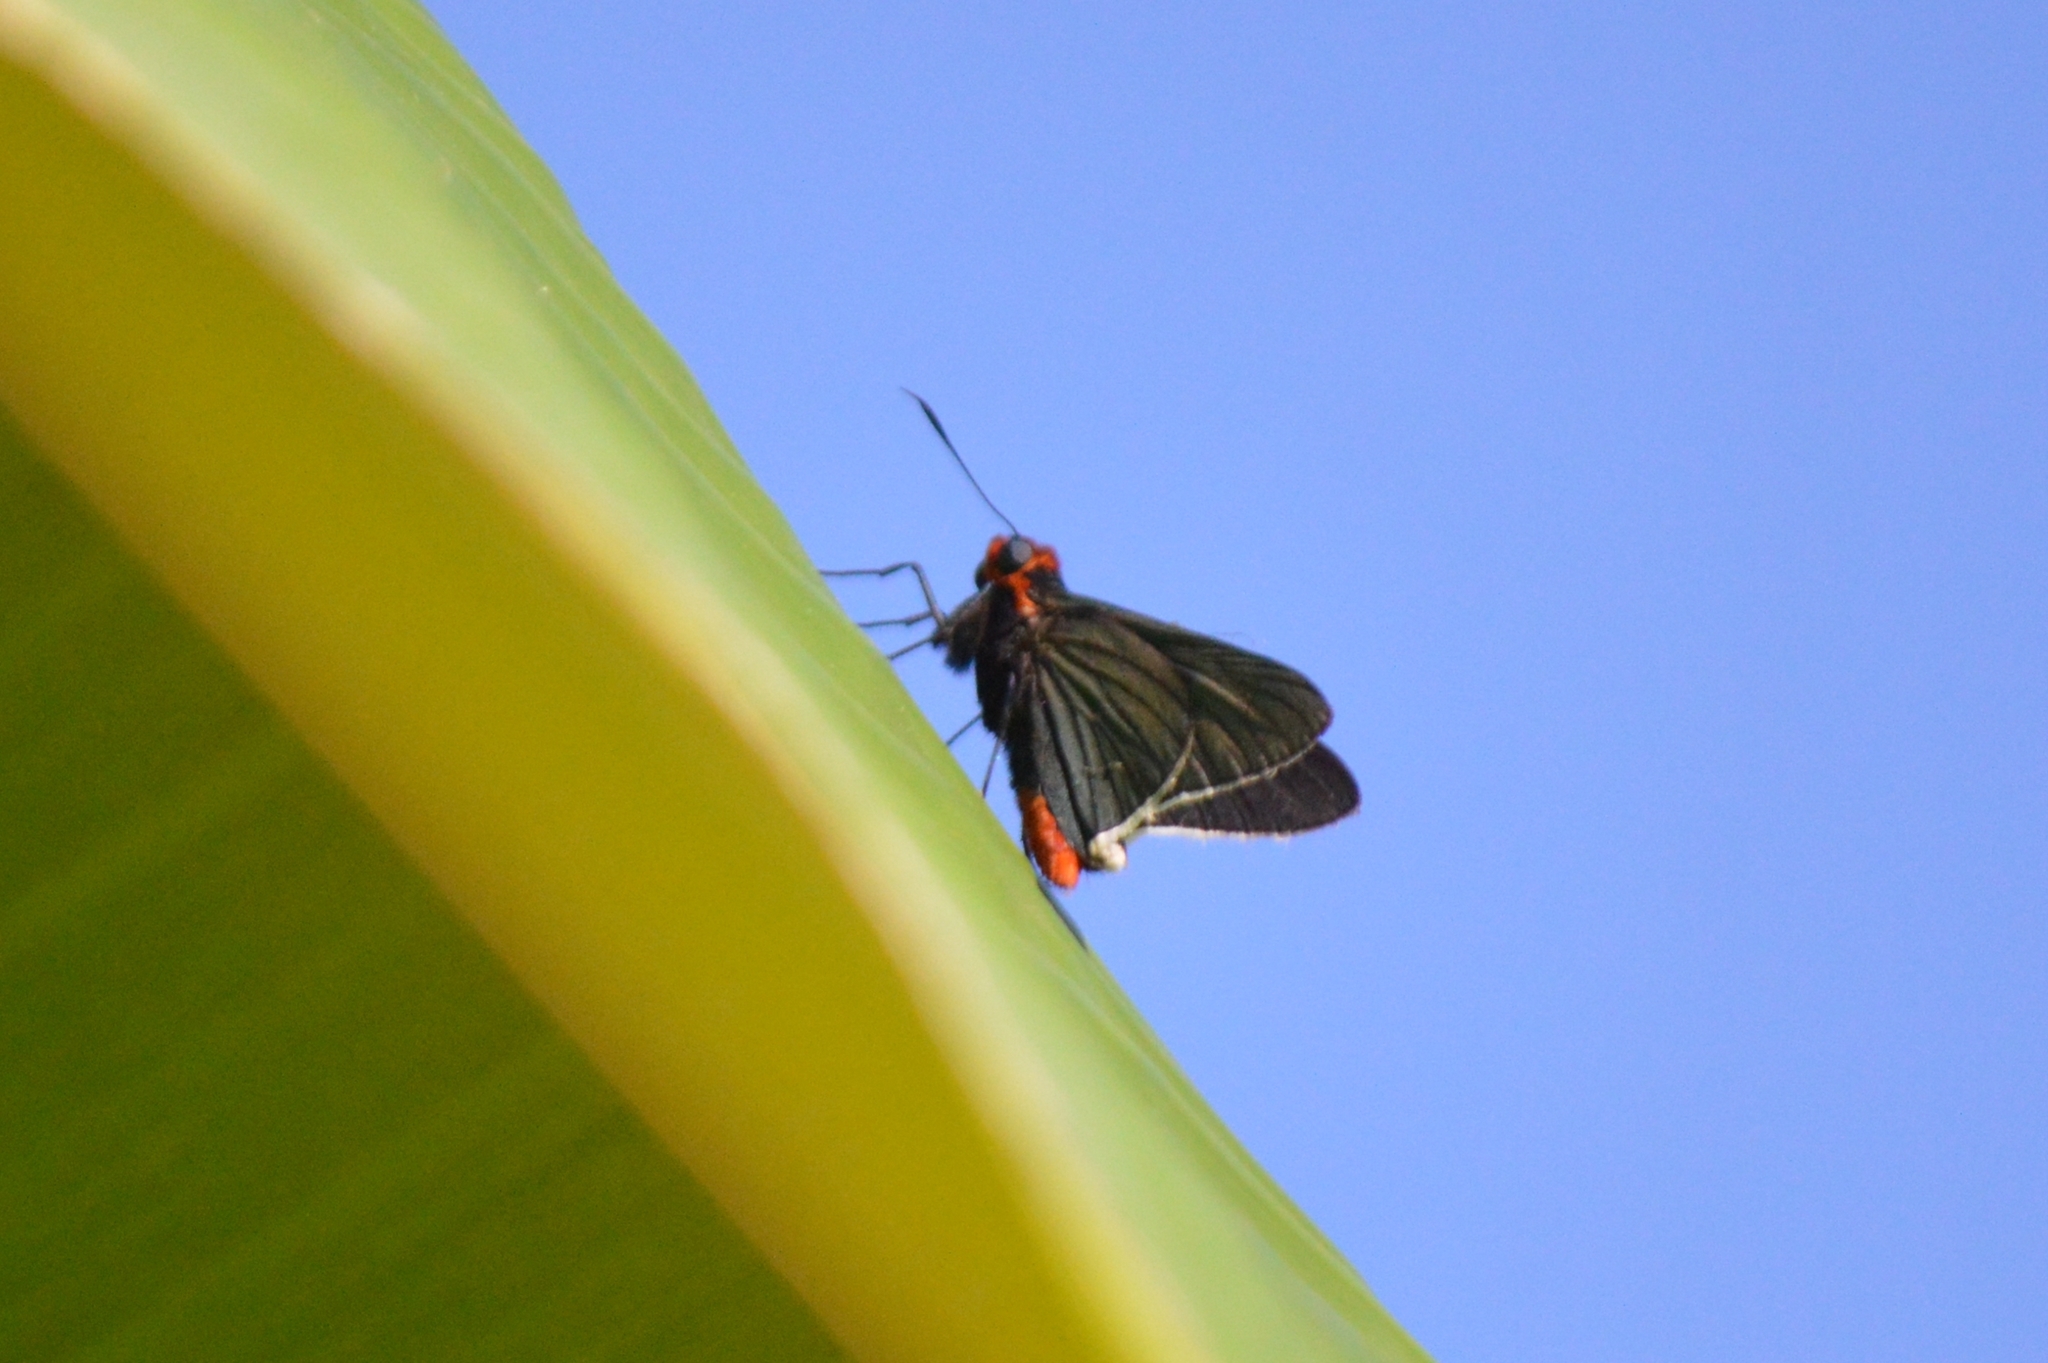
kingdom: Animalia
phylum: Arthropoda
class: Insecta
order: Lepidoptera
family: Hesperiidae
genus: Pyrrhopygopsis
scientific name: Pyrrhopygopsis socrates
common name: Socrates skipper
